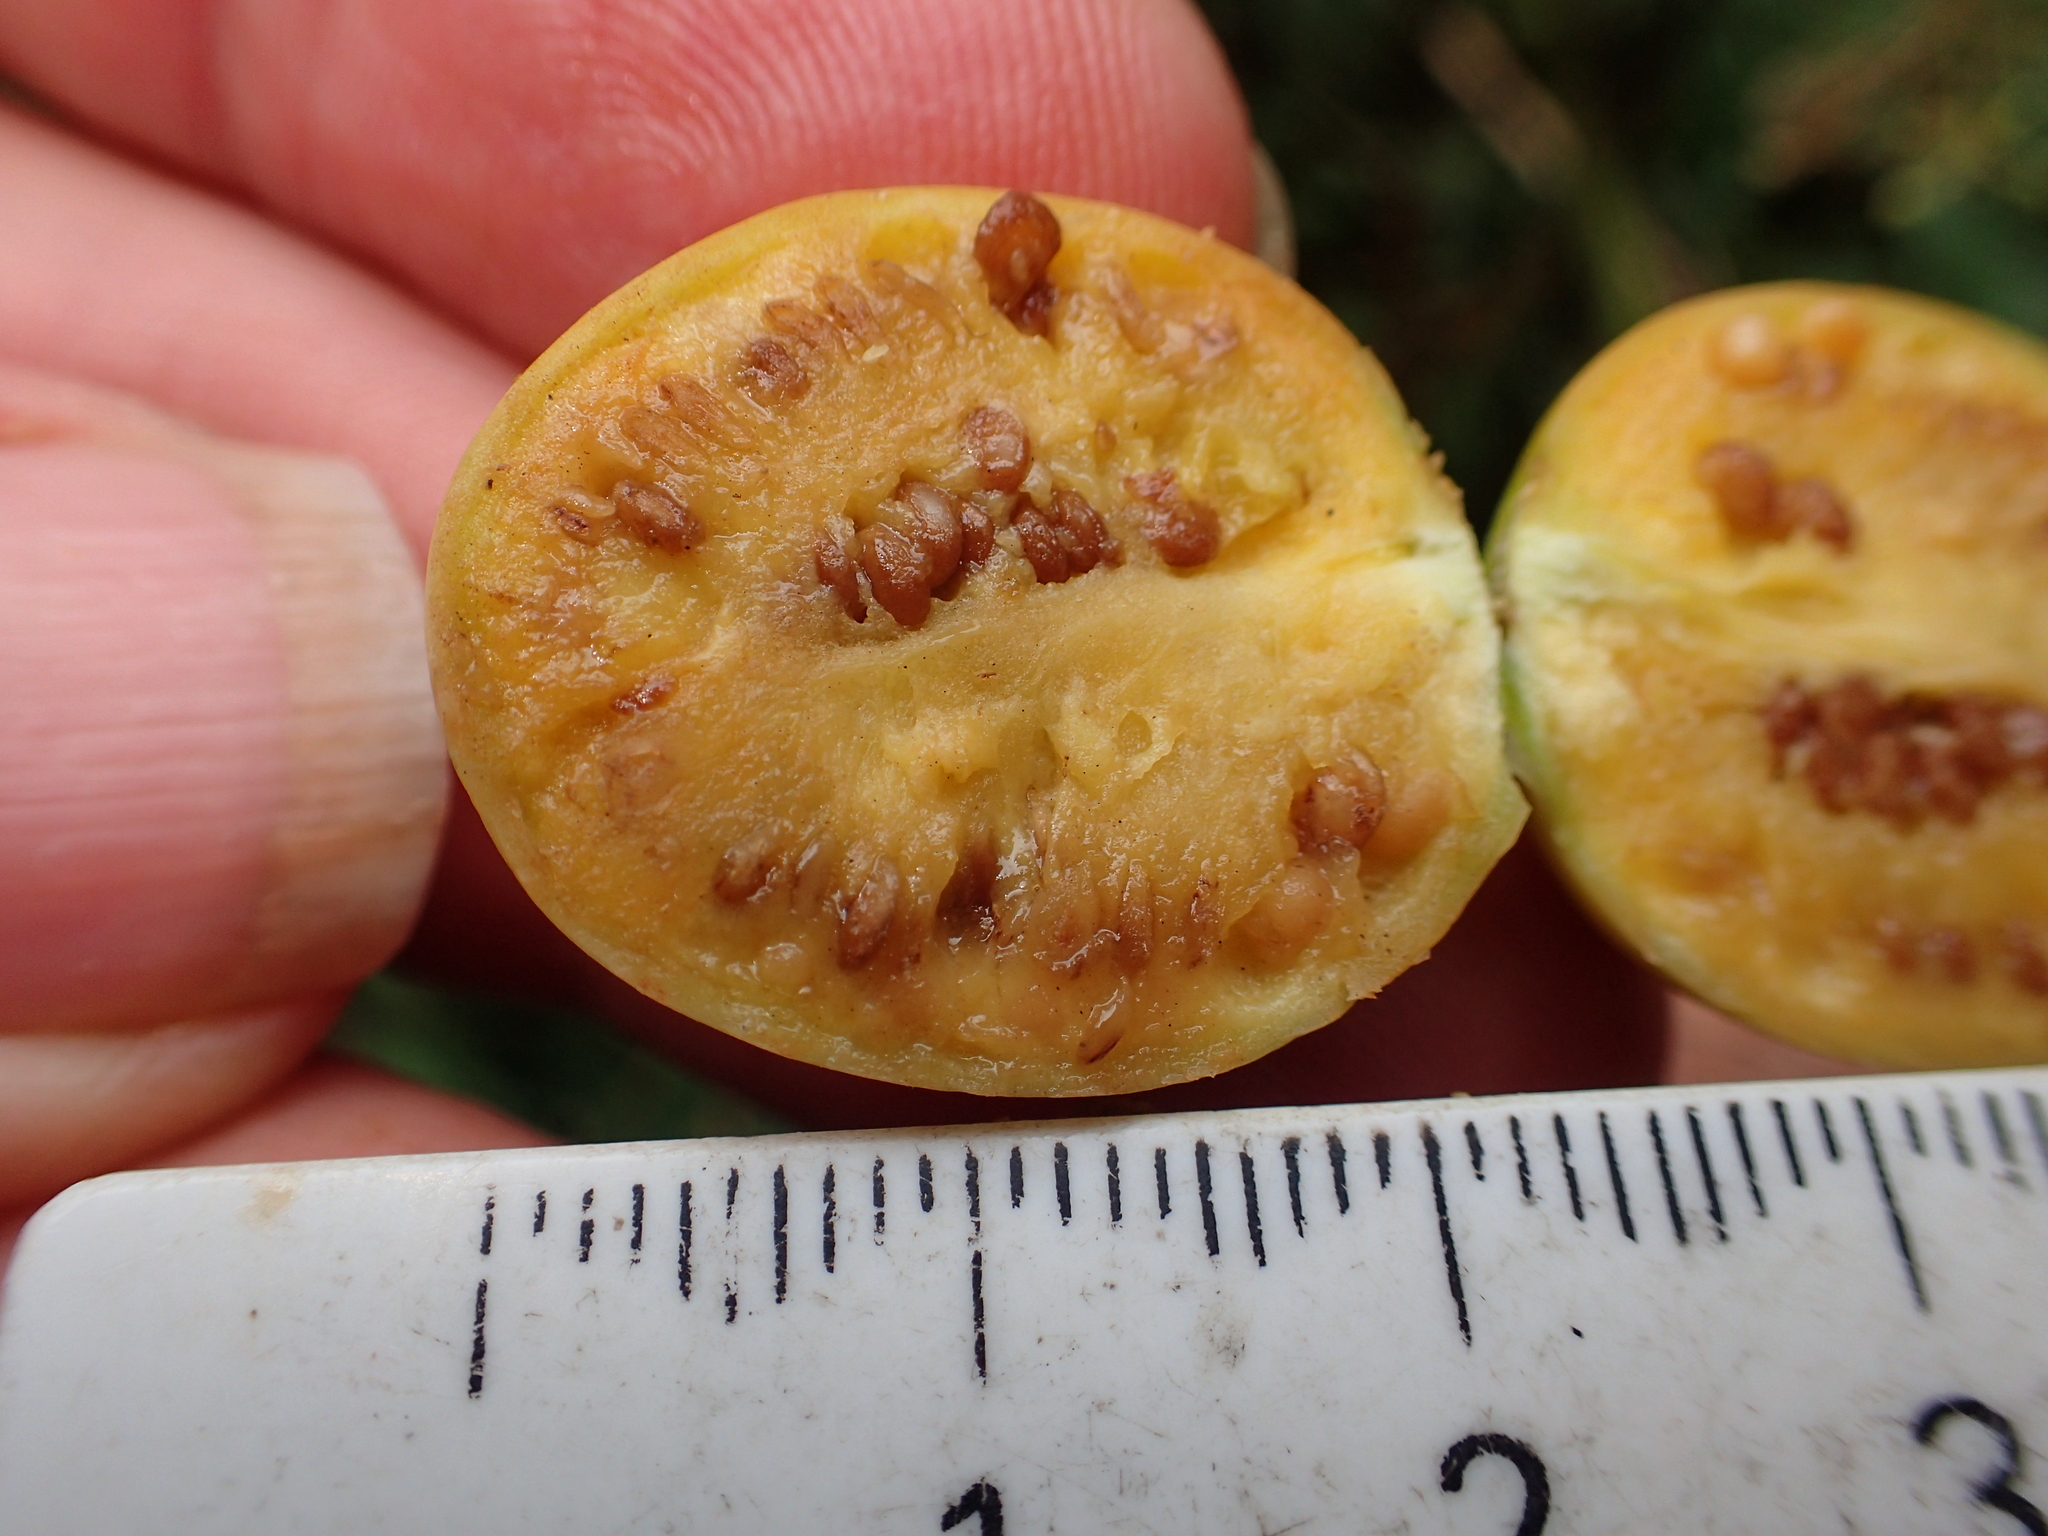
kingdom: Plantae
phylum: Tracheophyta
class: Magnoliopsida
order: Solanales
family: Solanaceae
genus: Solanum
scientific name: Solanum laciniatum
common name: Kangaroo-apple
